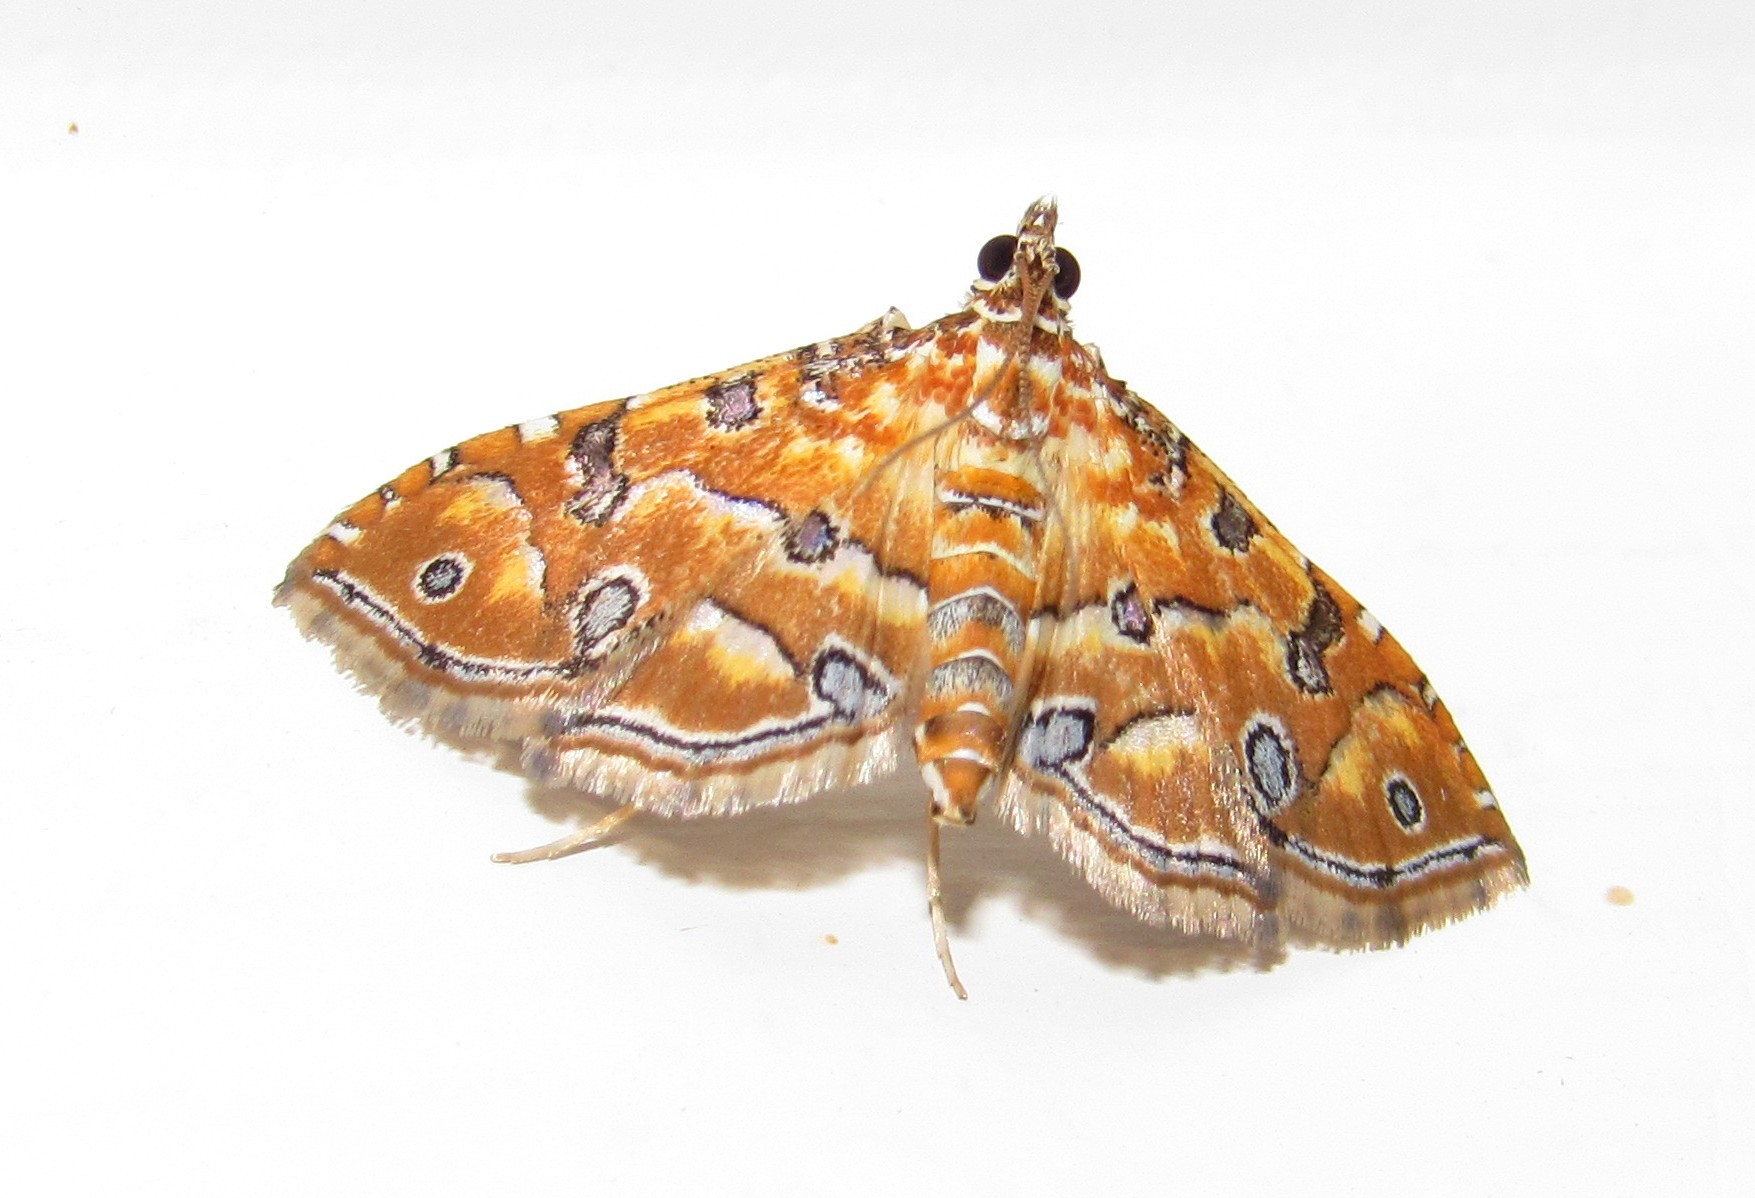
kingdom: Animalia
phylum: Arthropoda
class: Insecta
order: Lepidoptera
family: Crambidae
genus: Ommatospila
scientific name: Ommatospila narcaeusalis
